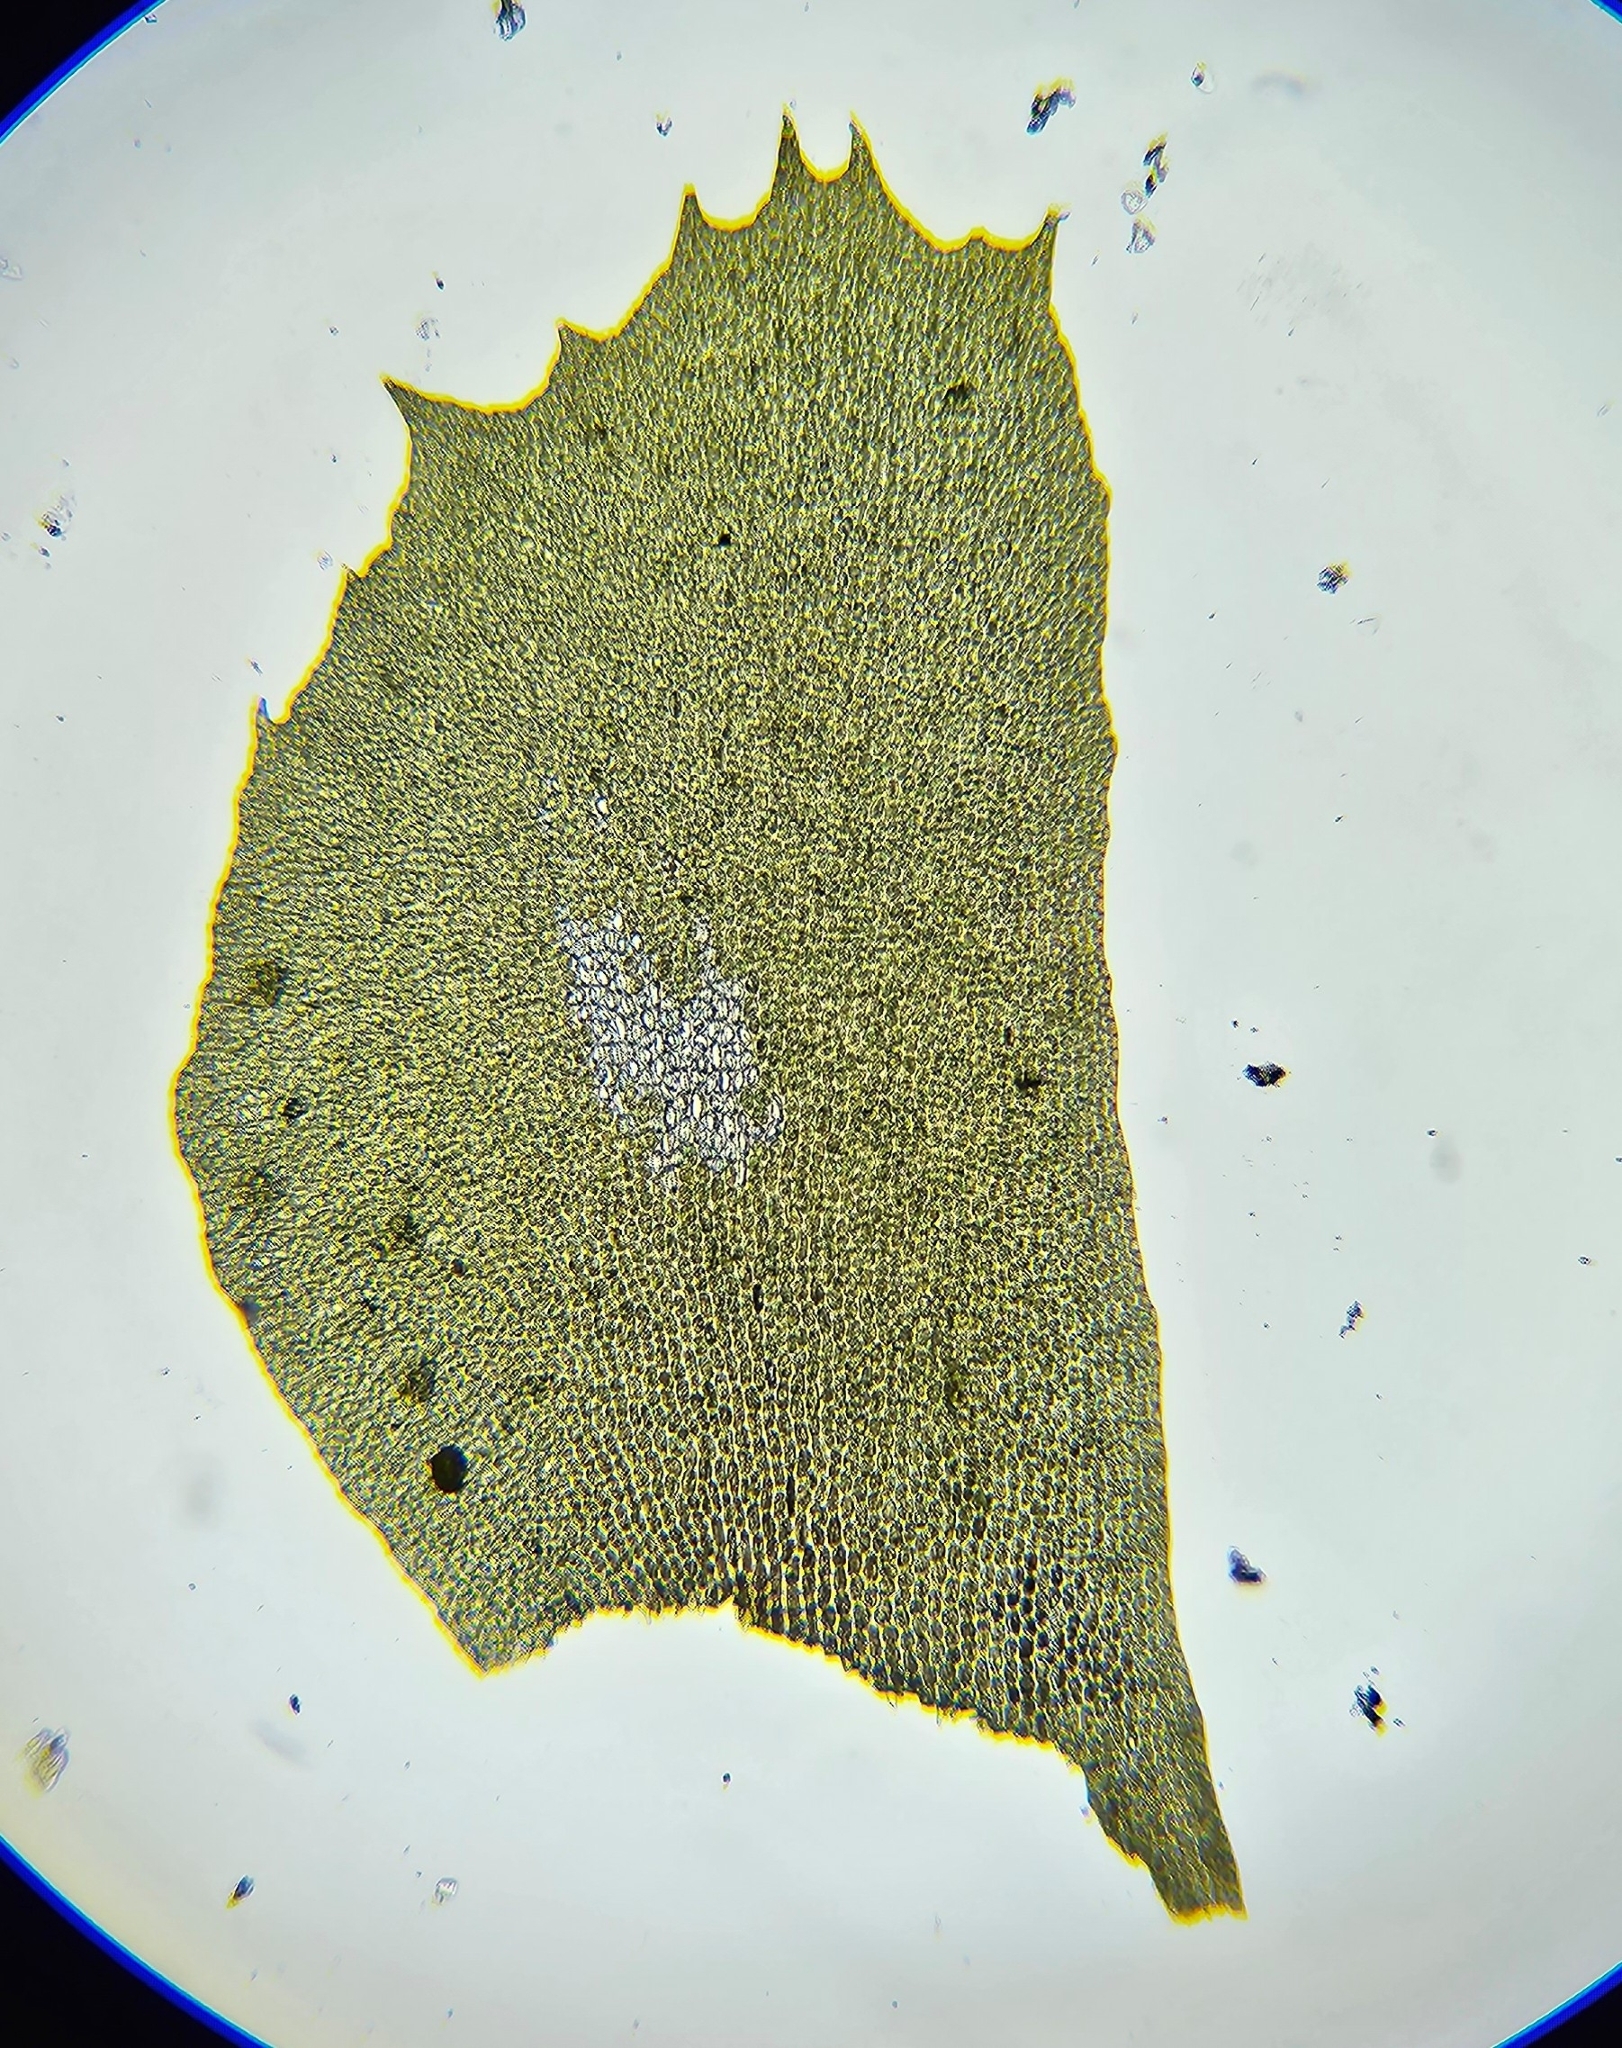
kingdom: Plantae
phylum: Marchantiophyta
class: Jungermanniopsida
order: Jungermanniales
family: Plagiochilaceae
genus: Plagiochila
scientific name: Plagiochila spinulosa
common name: Prickly featherwort
